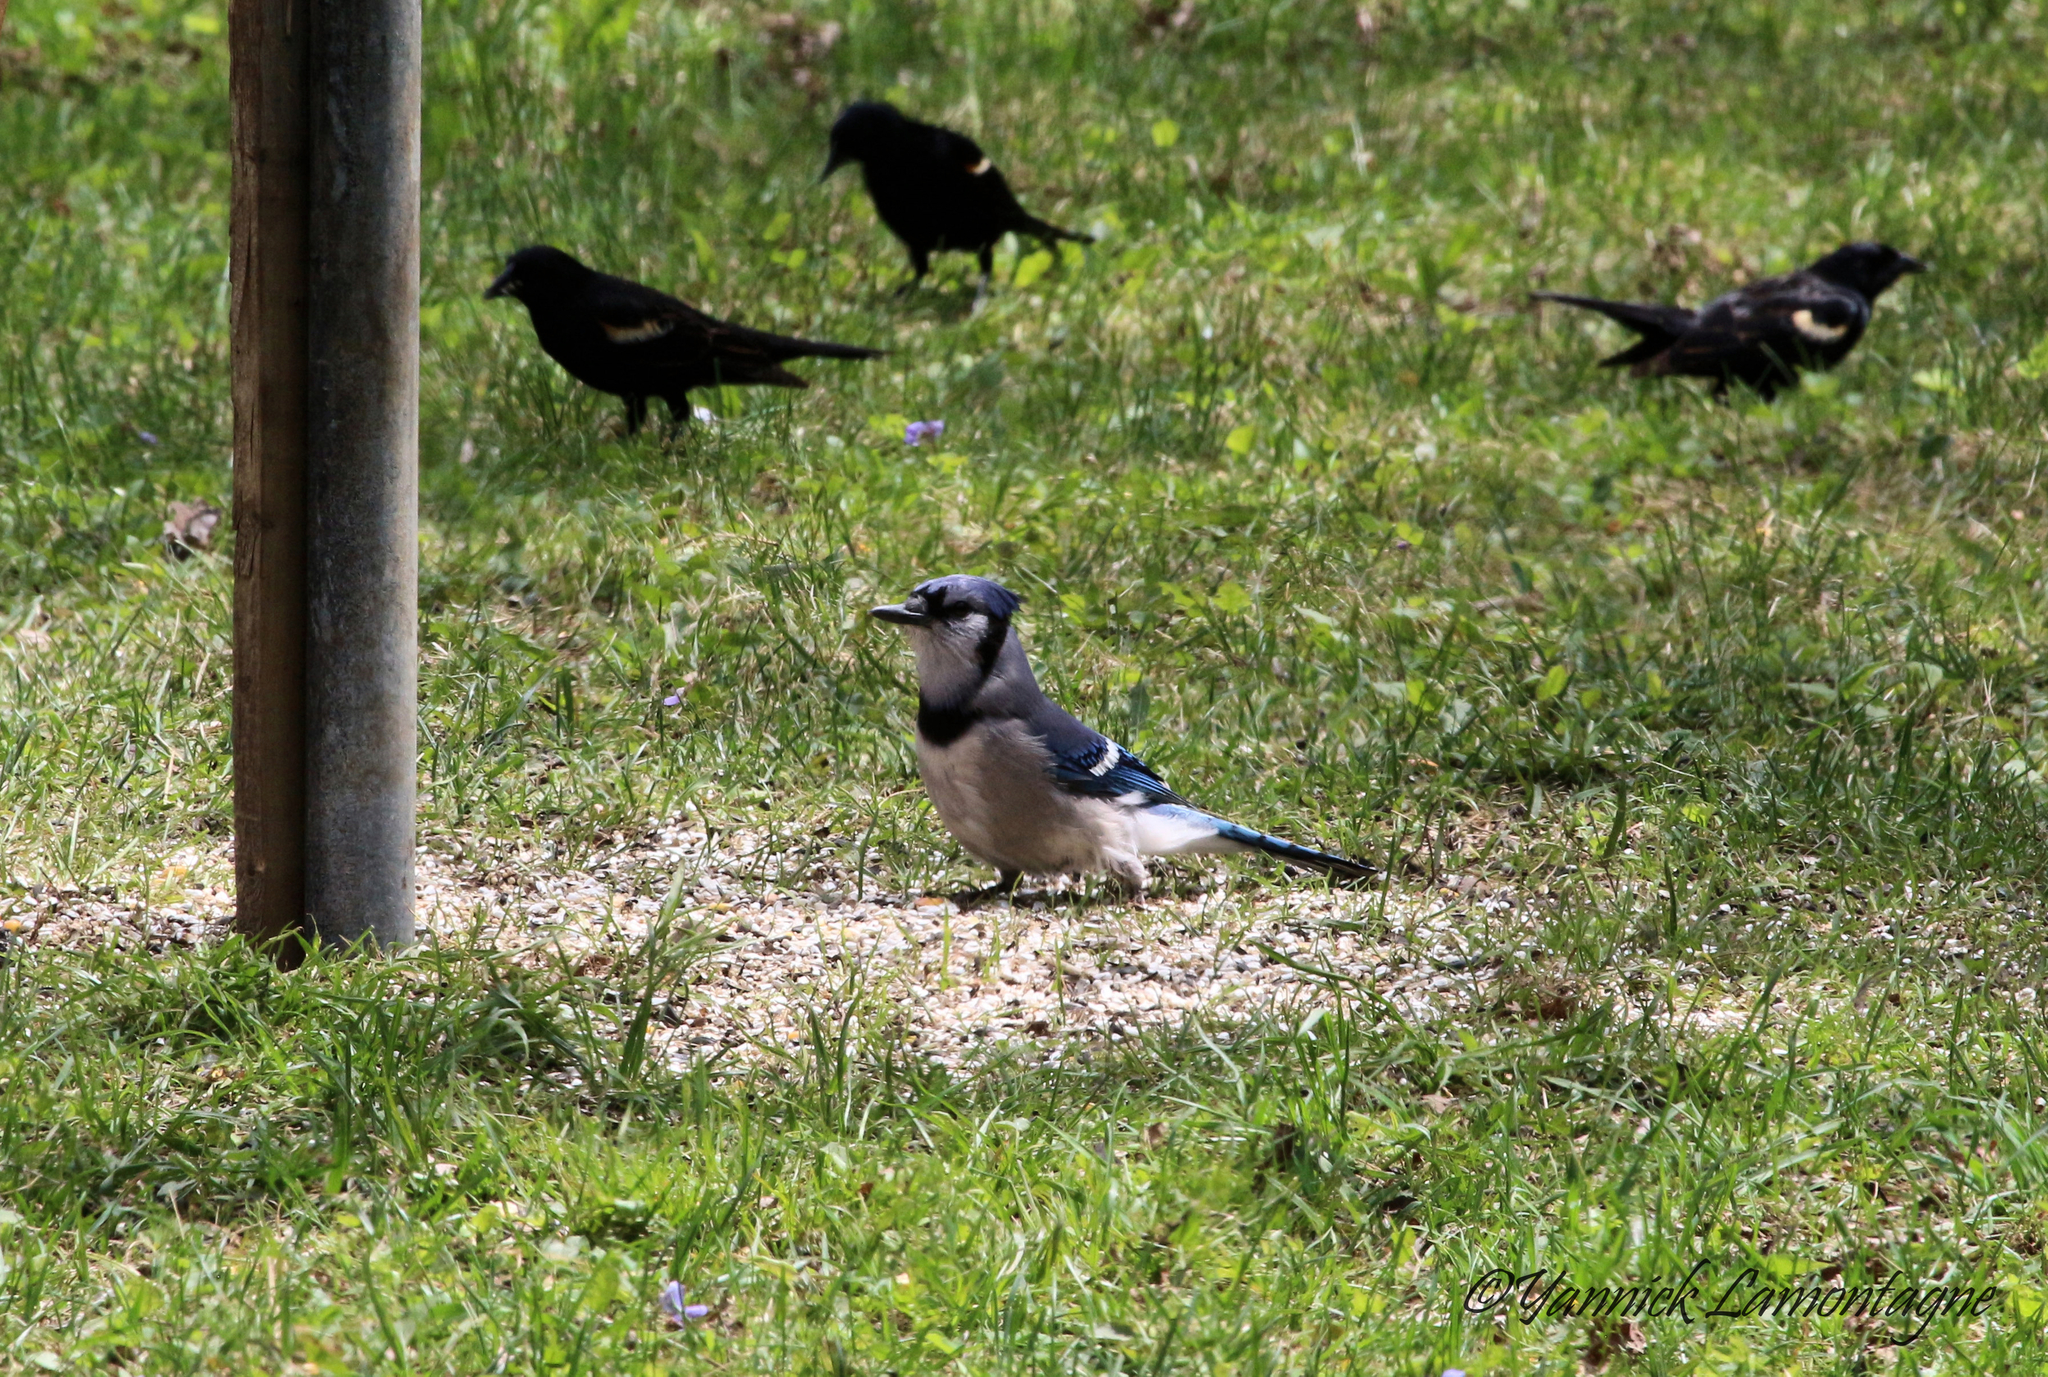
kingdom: Animalia
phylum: Chordata
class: Aves
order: Passeriformes
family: Corvidae
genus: Cyanocitta
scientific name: Cyanocitta cristata
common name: Blue jay
